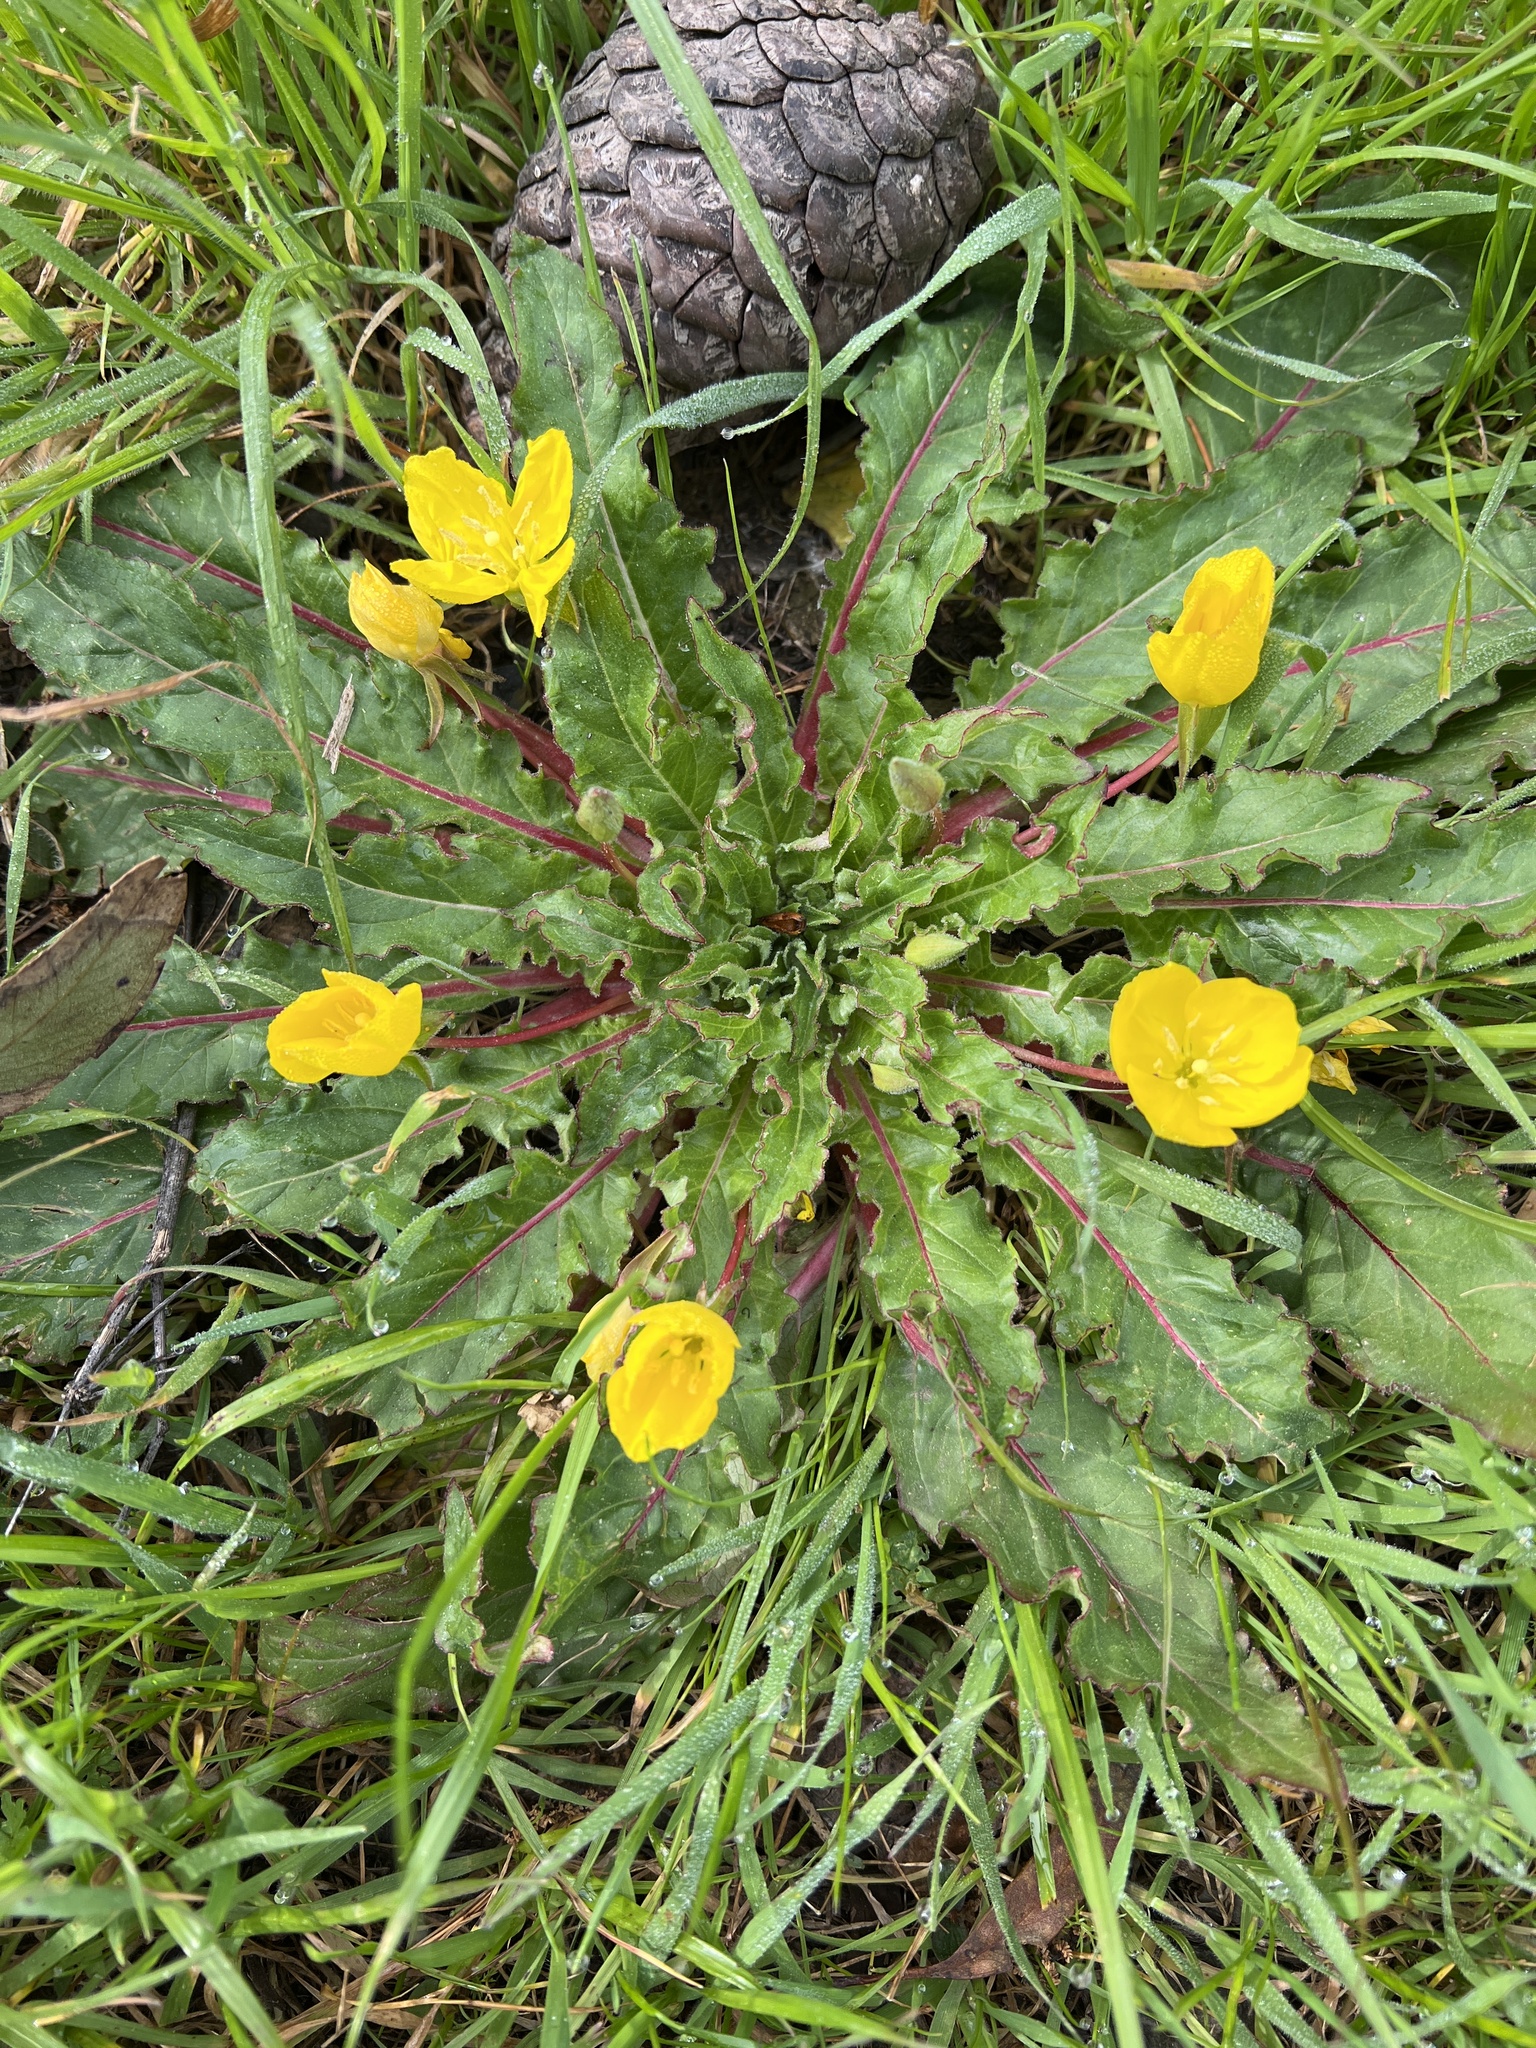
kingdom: Plantae
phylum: Tracheophyta
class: Magnoliopsida
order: Myrtales
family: Onagraceae
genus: Taraxia
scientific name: Taraxia ovata
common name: Goldeneggs
